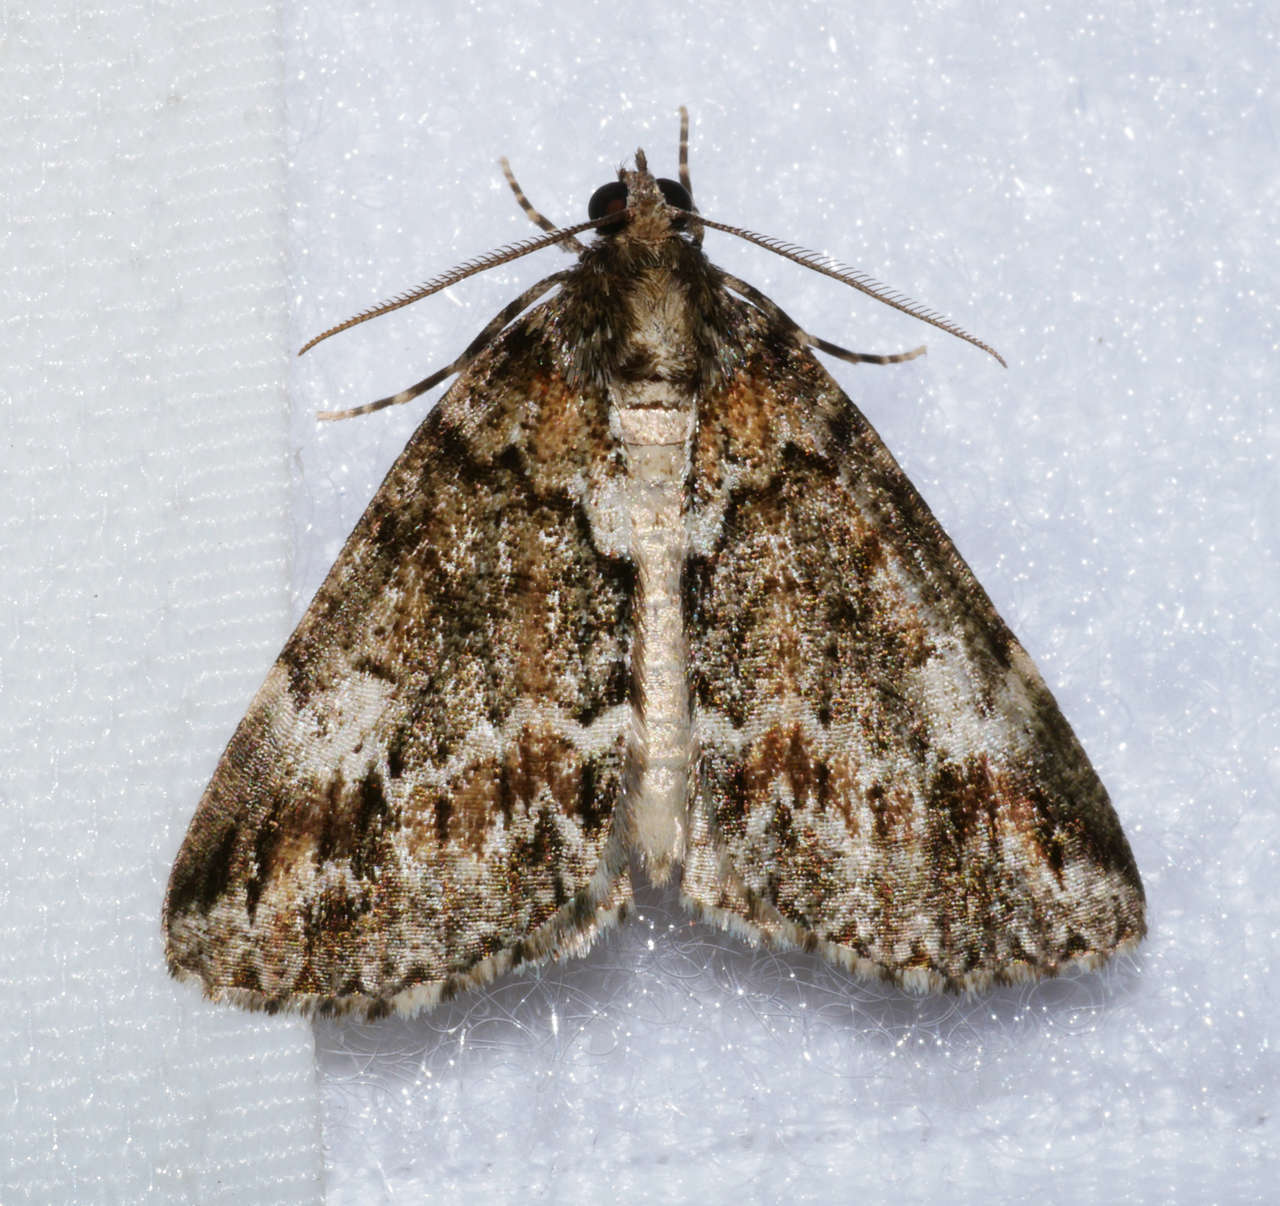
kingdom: Animalia
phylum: Arthropoda
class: Insecta
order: Lepidoptera
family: Geometridae
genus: Middletonia
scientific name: Middletonia suavis
